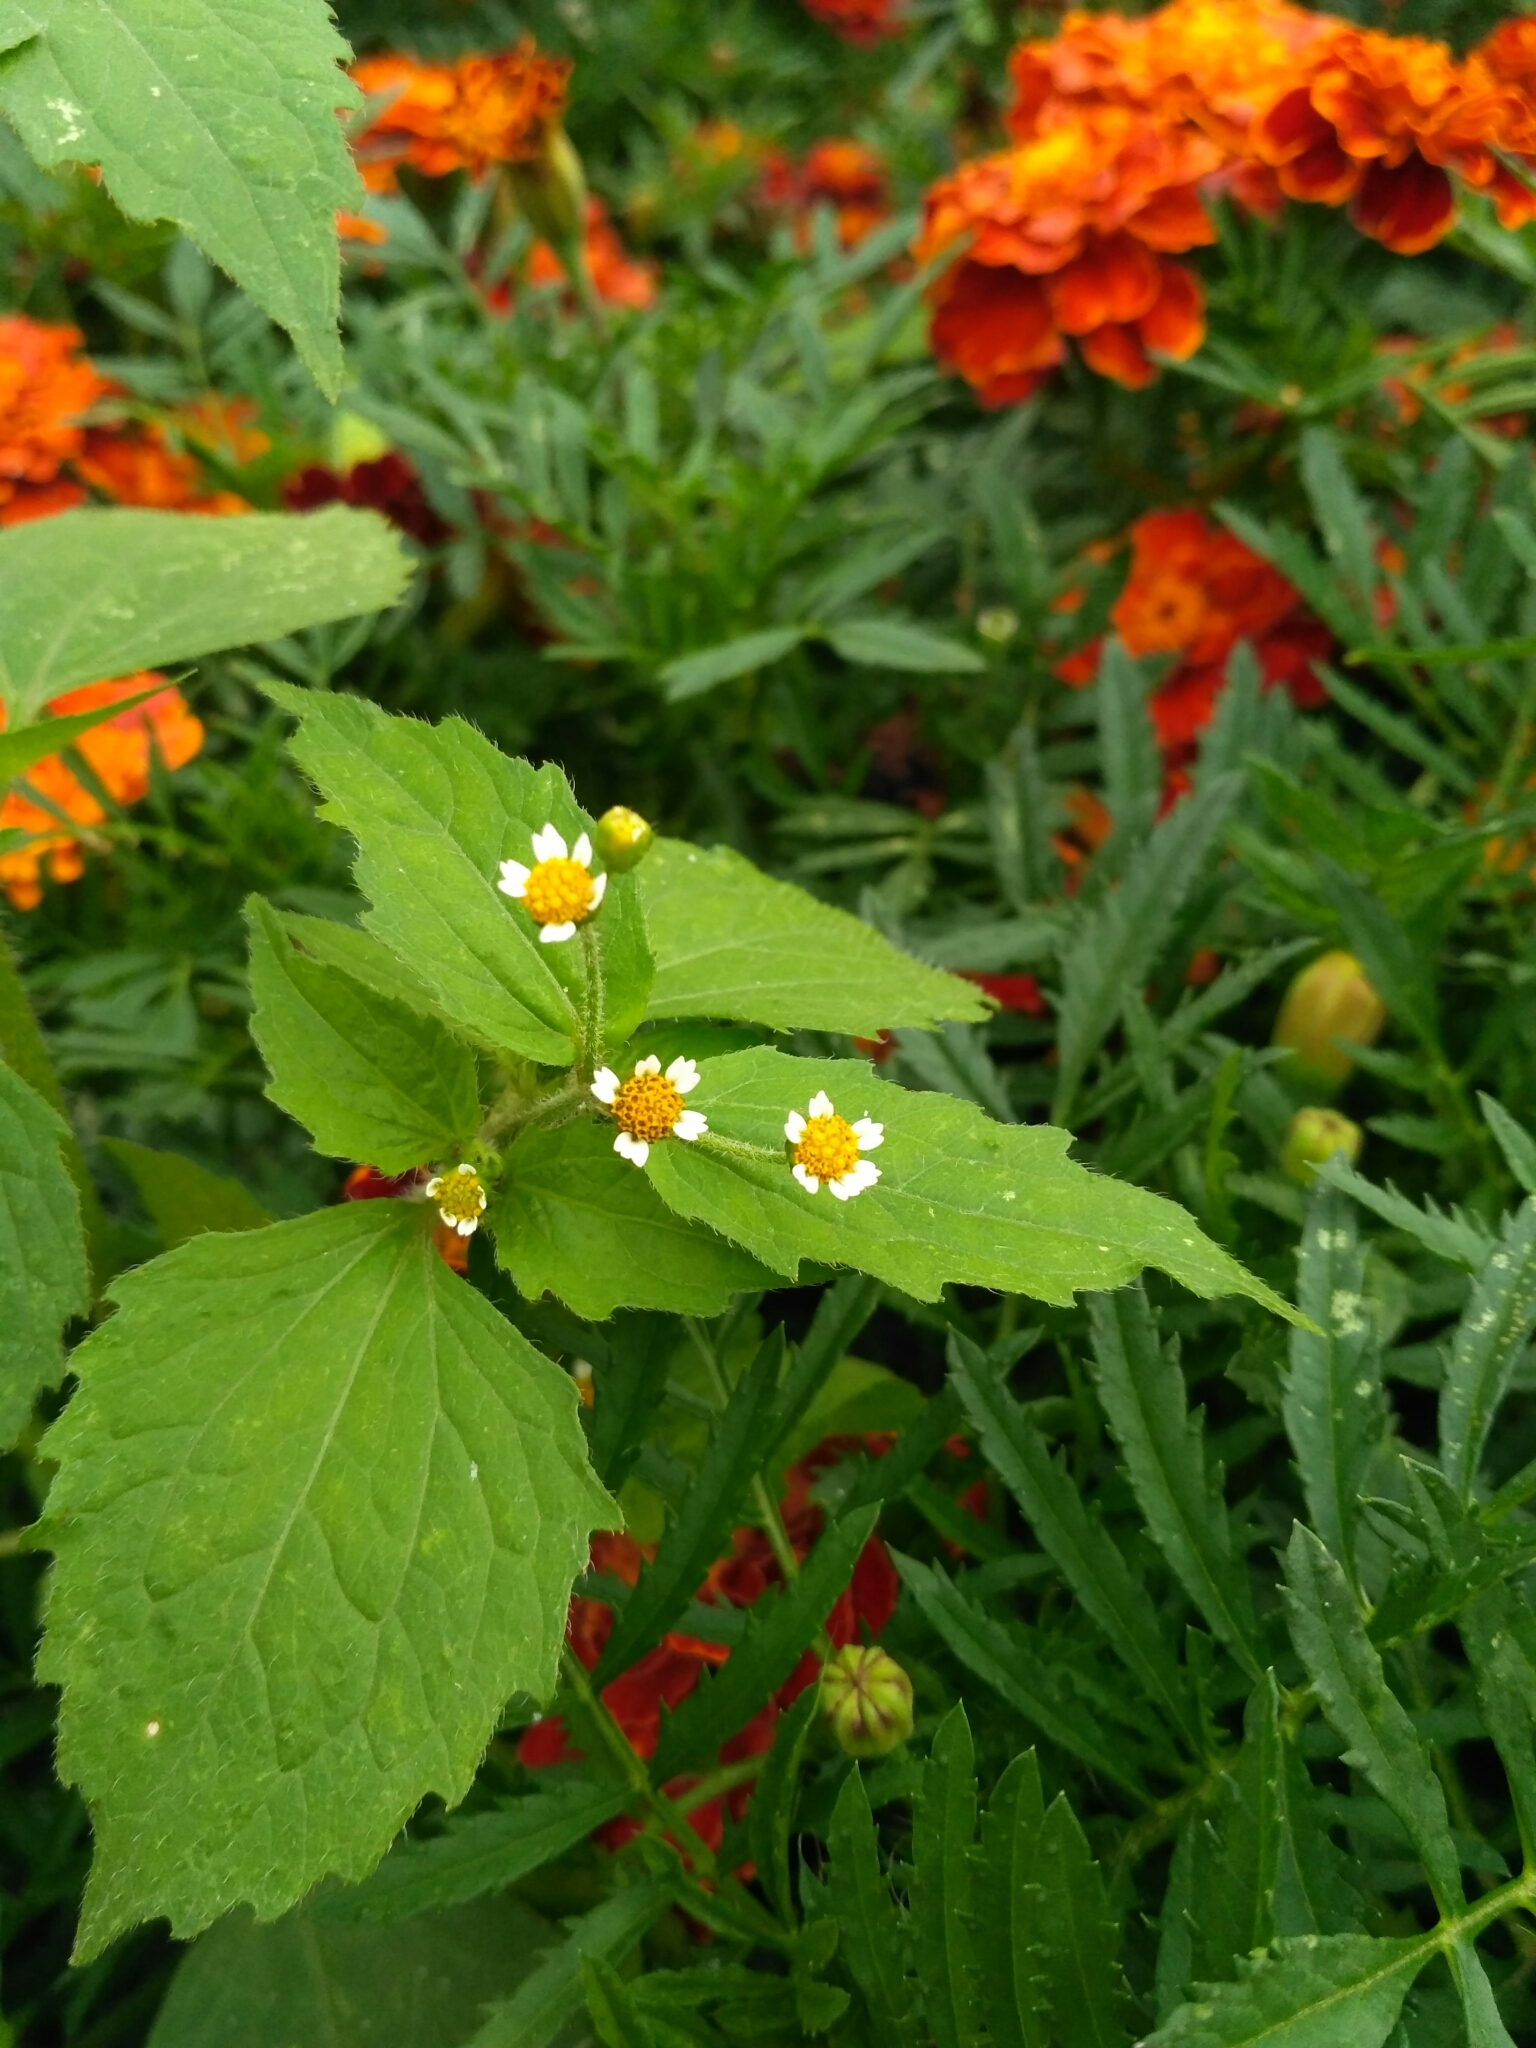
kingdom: Plantae
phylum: Tracheophyta
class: Magnoliopsida
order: Asterales
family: Asteraceae
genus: Galinsoga
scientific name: Galinsoga quadriradiata
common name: Shaggy soldier
